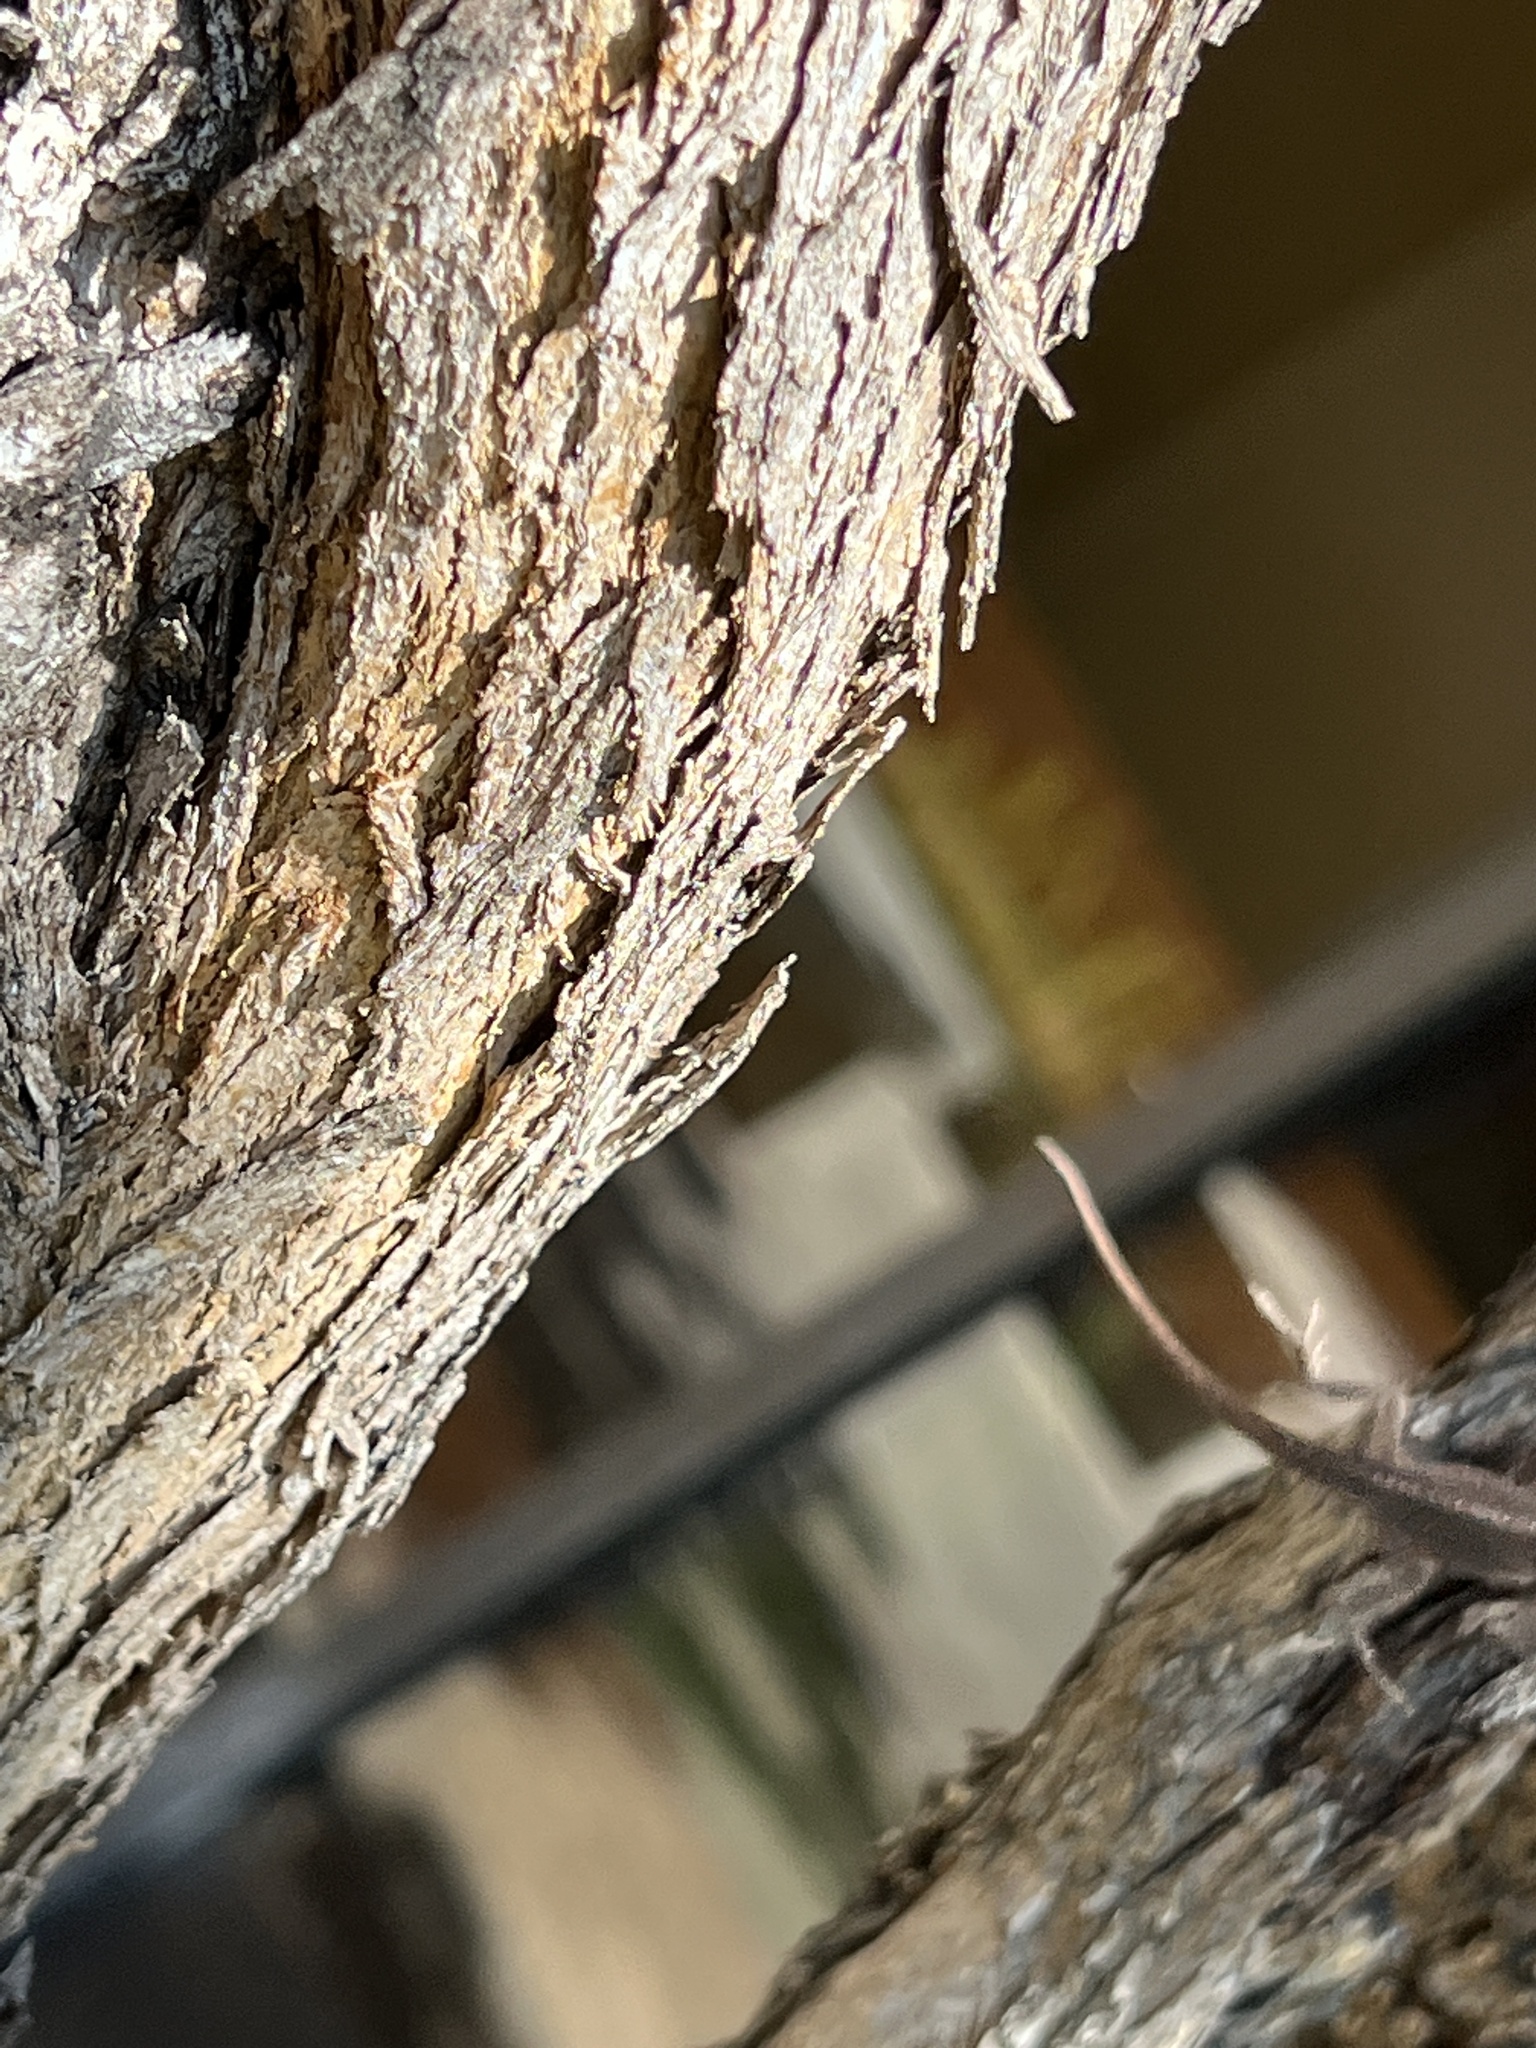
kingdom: Animalia
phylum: Chordata
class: Squamata
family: Dactyloidae
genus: Anolis
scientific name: Anolis carolinensis
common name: Green anole
